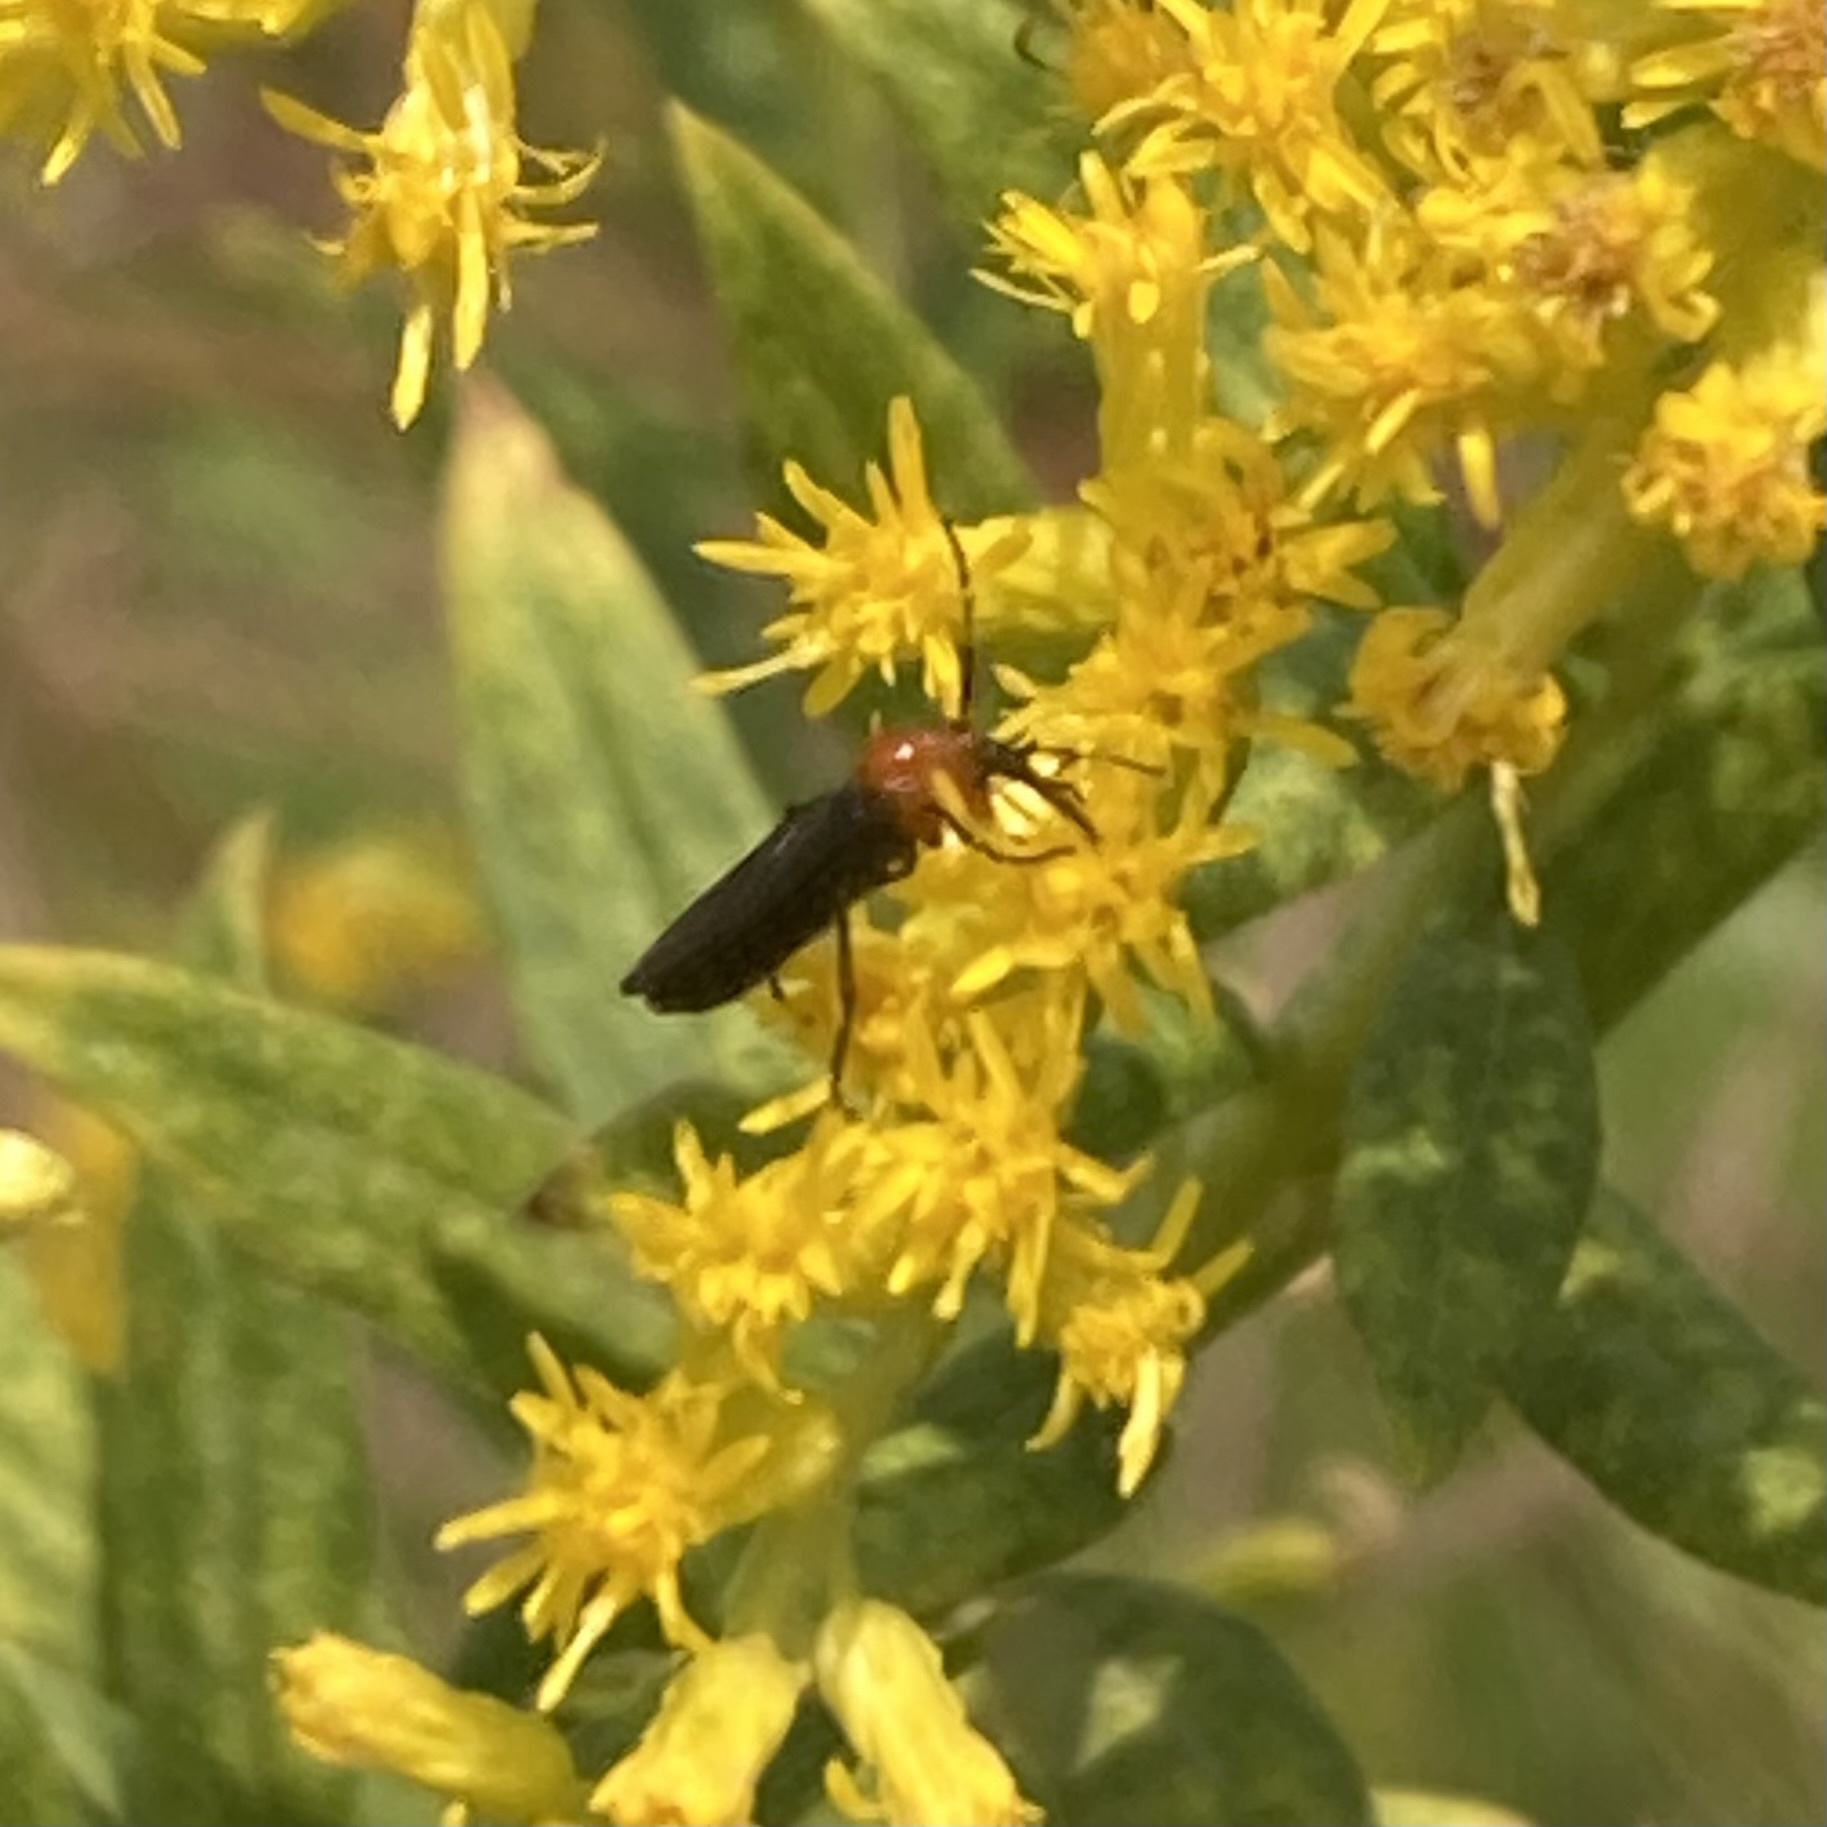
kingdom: Animalia
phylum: Arthropoda
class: Insecta
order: Diptera
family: Bibionidae
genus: Dilophus
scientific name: Dilophus spinipes
